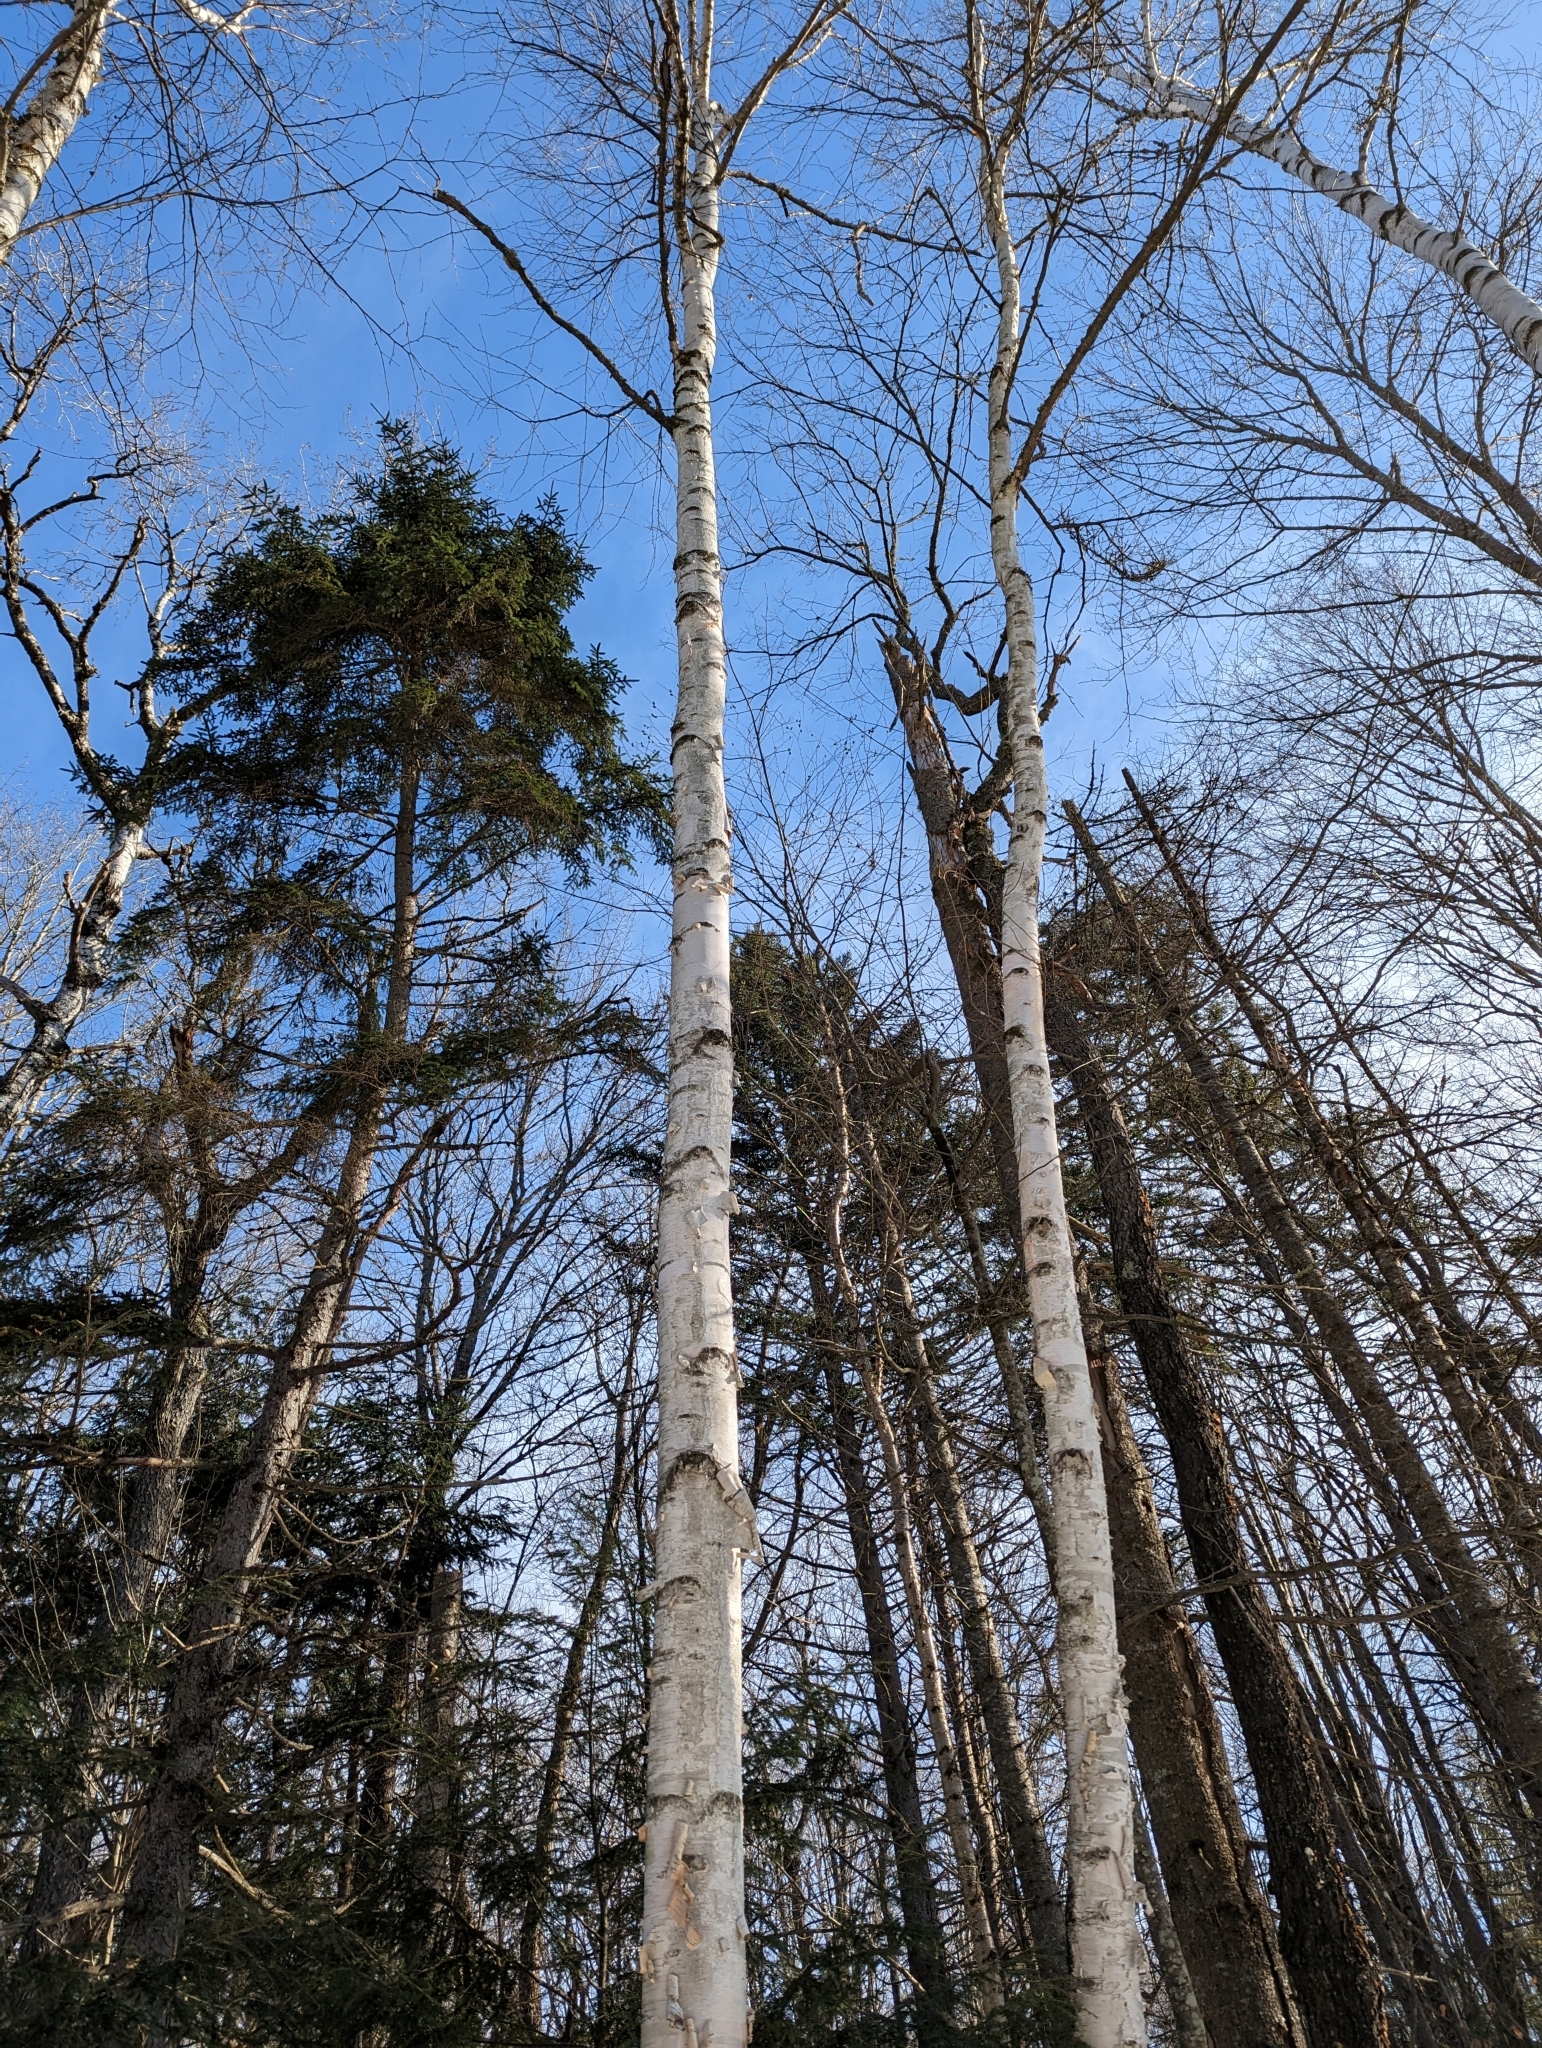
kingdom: Plantae
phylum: Tracheophyta
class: Magnoliopsida
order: Fagales
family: Betulaceae
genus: Betula
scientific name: Betula papyrifera
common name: Paper birch
